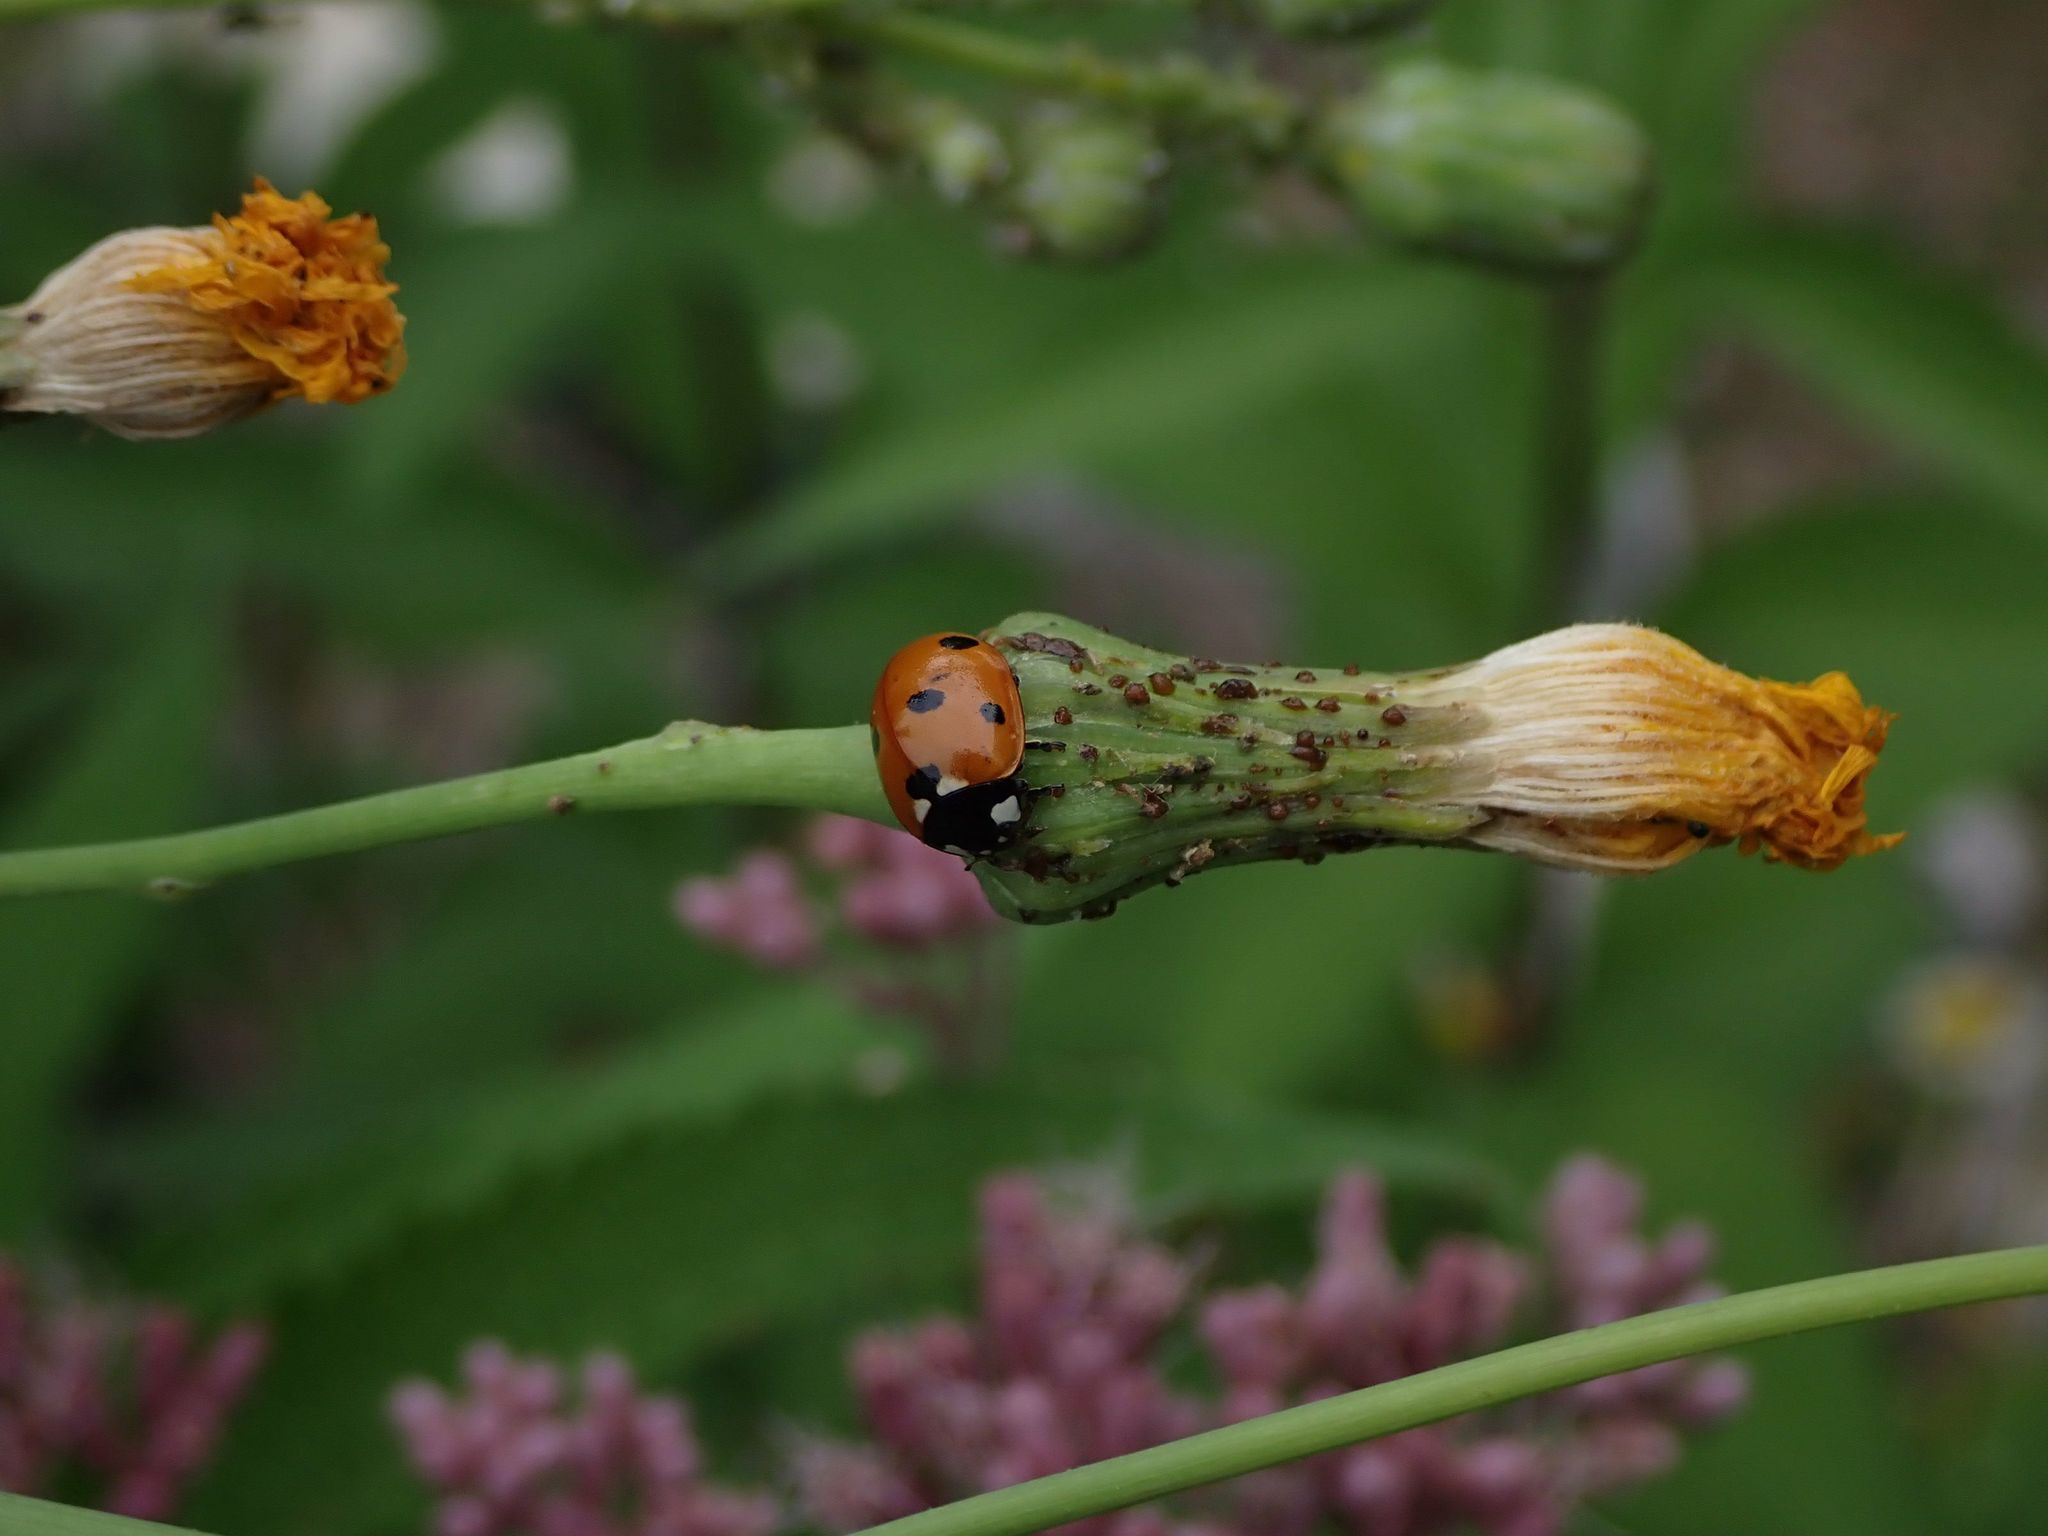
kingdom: Animalia
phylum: Arthropoda
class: Insecta
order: Coleoptera
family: Coccinellidae
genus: Coccinella
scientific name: Coccinella septempunctata
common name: Sevenspotted lady beetle
